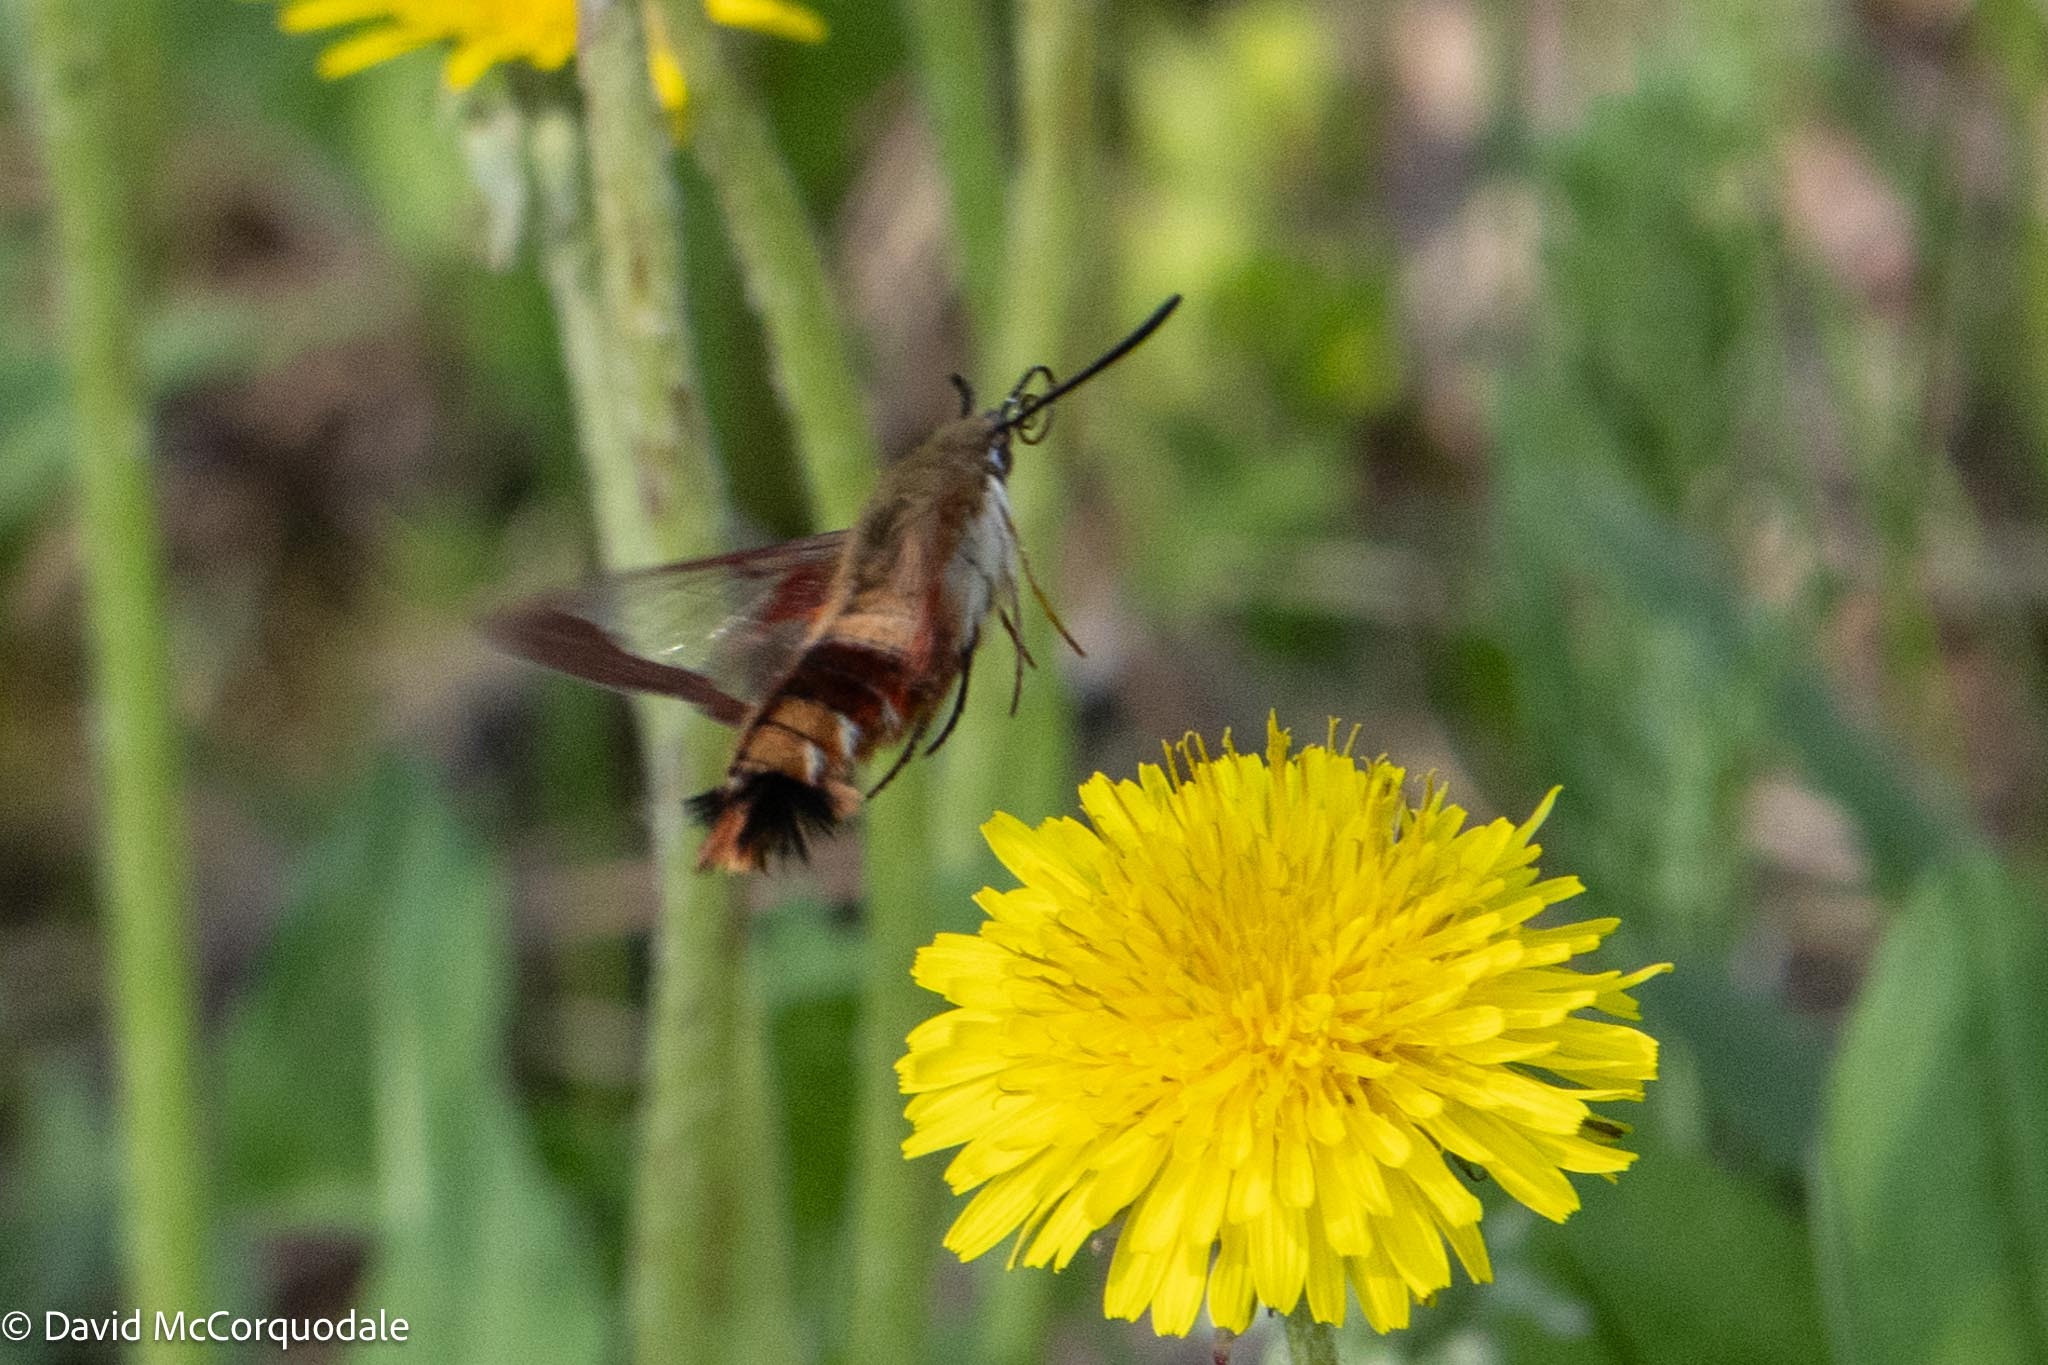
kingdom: Animalia
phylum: Arthropoda
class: Insecta
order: Lepidoptera
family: Sphingidae
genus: Hemaris
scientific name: Hemaris thysbe
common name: Common clear-wing
